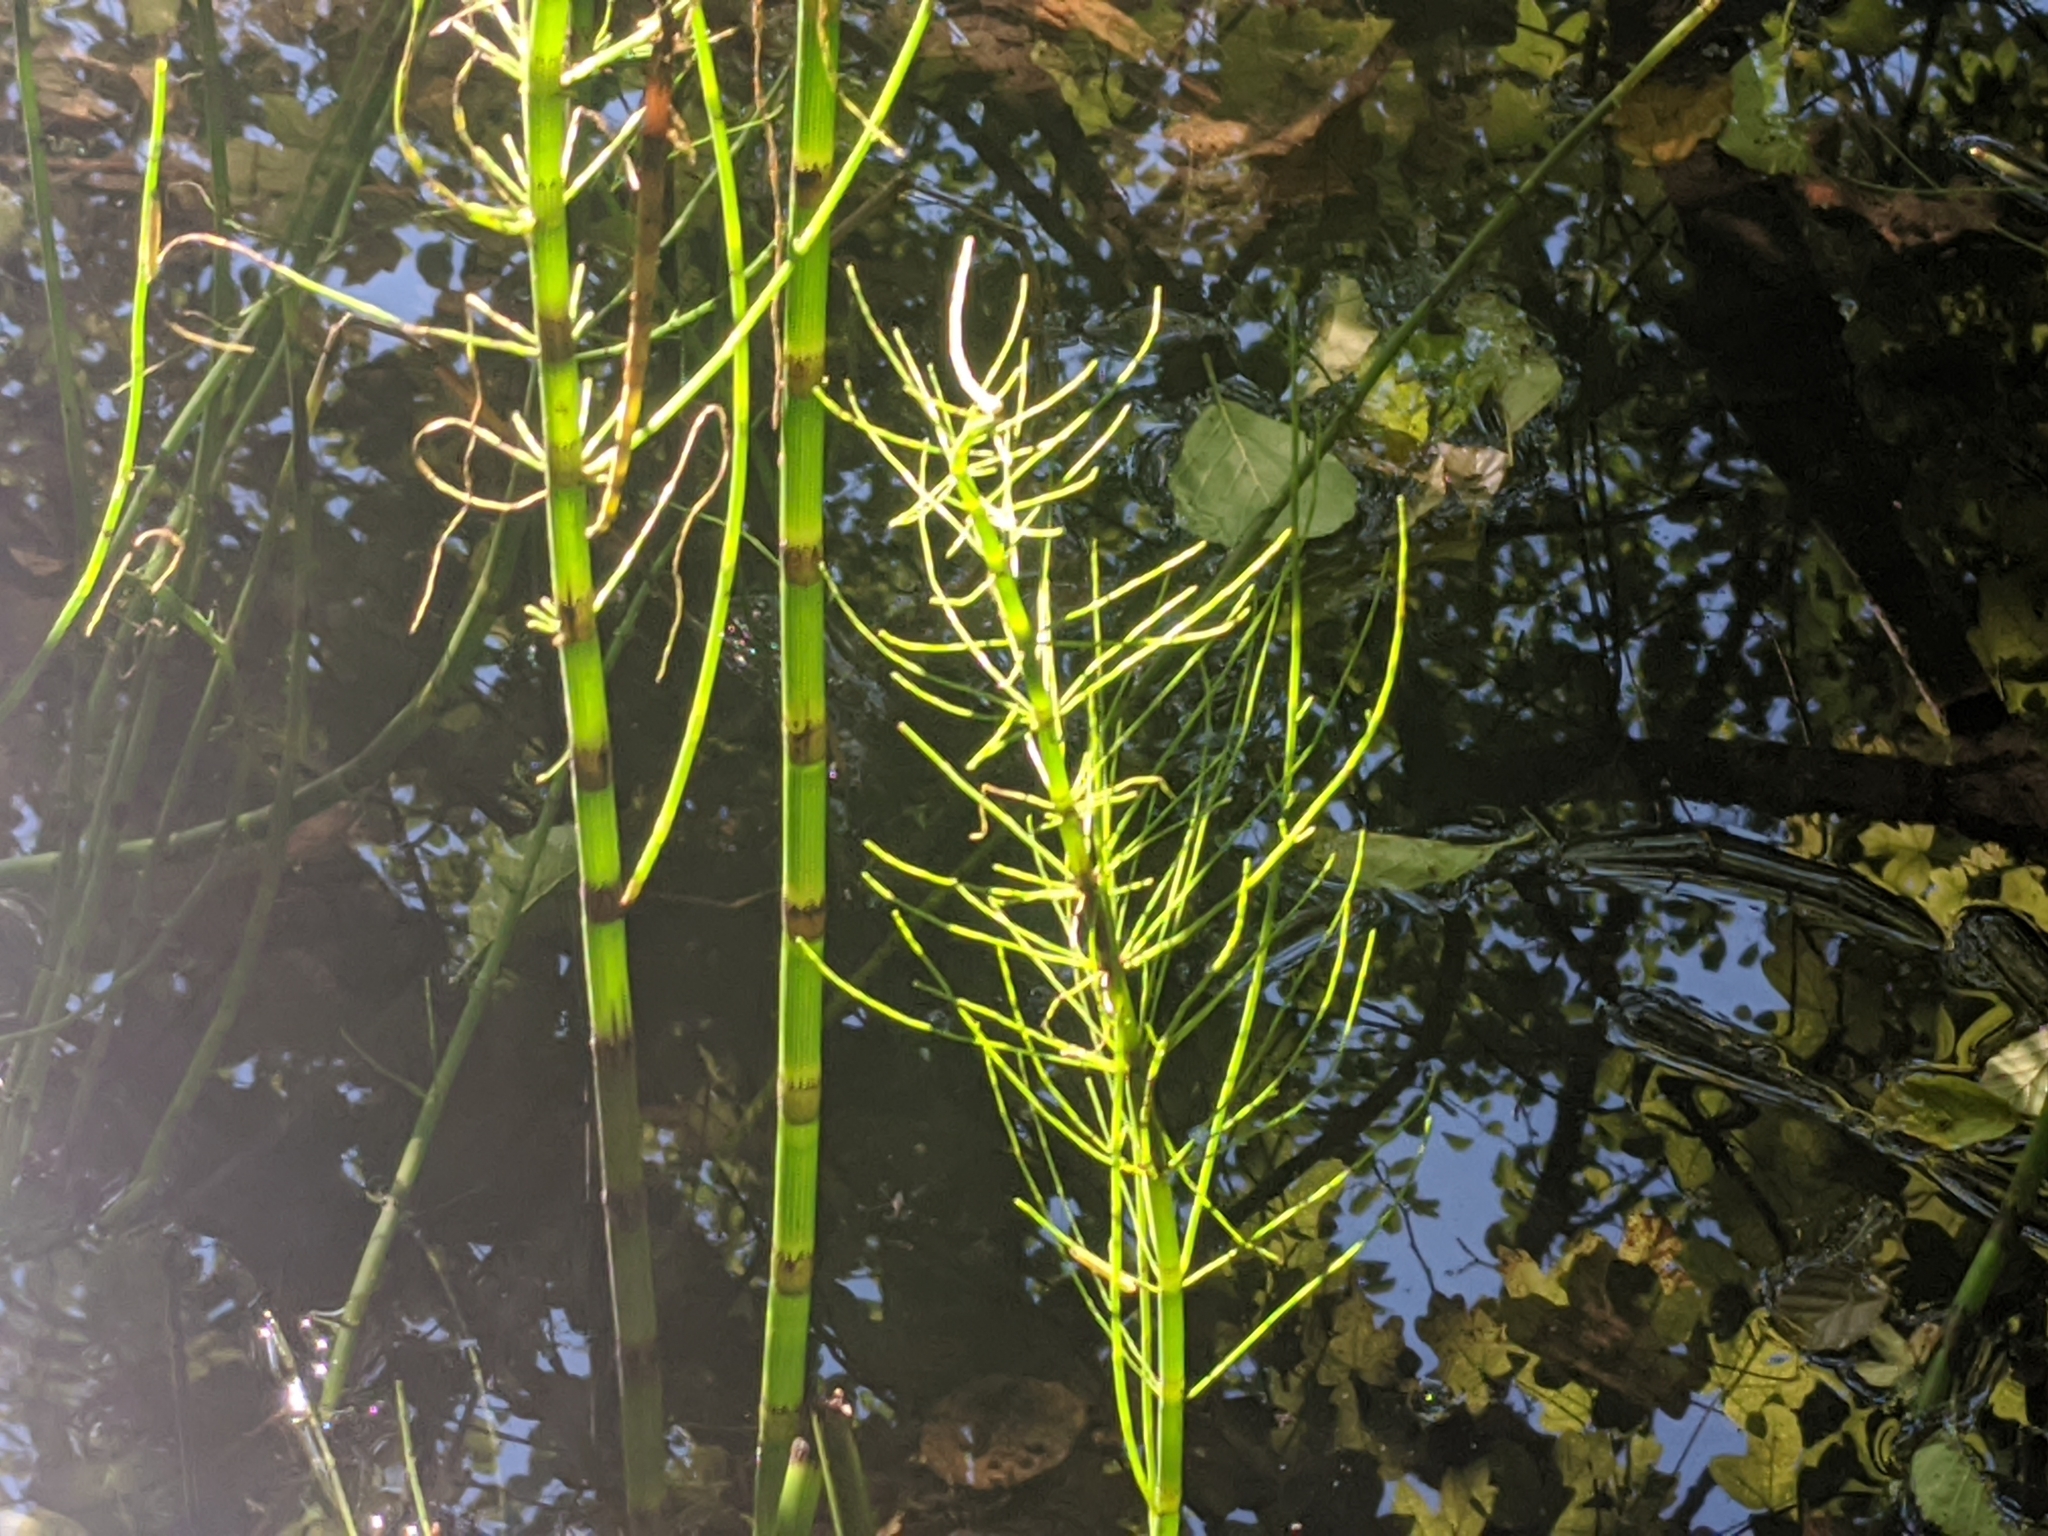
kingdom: Plantae
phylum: Tracheophyta
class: Polypodiopsida
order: Equisetales
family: Equisetaceae
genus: Equisetum
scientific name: Equisetum fluviatile
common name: Water horsetail
